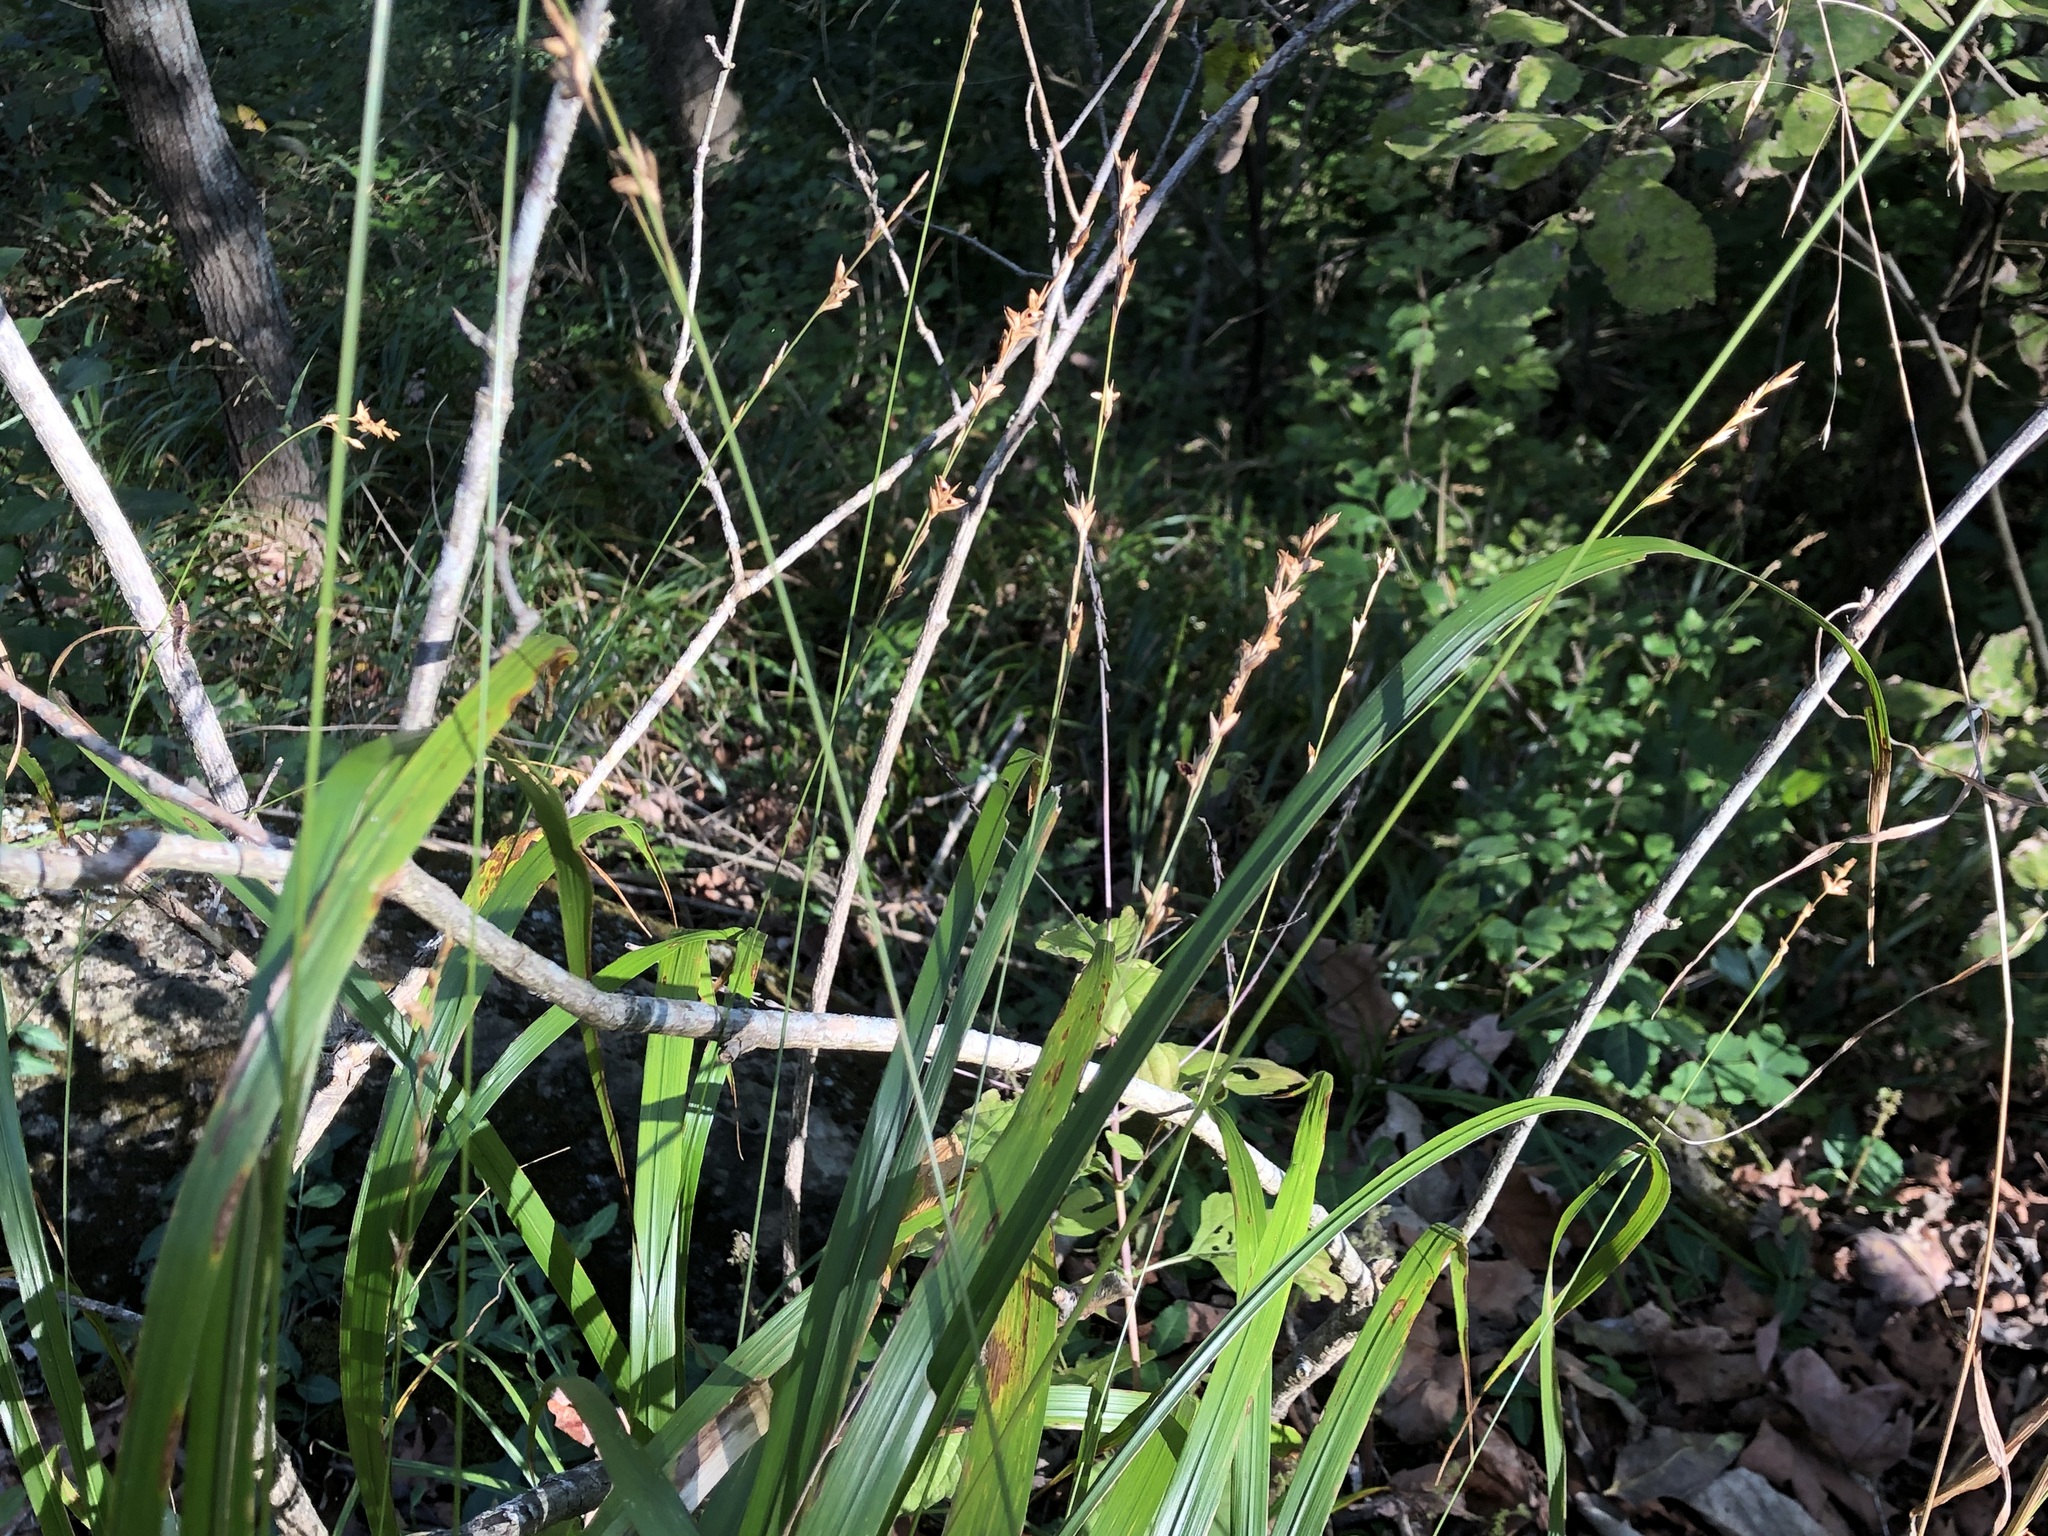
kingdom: Plantae
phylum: Tracheophyta
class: Liliopsida
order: Poales
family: Poaceae
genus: Chasmanthium
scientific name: Chasmanthium laxum
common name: Slender chasmanthium
